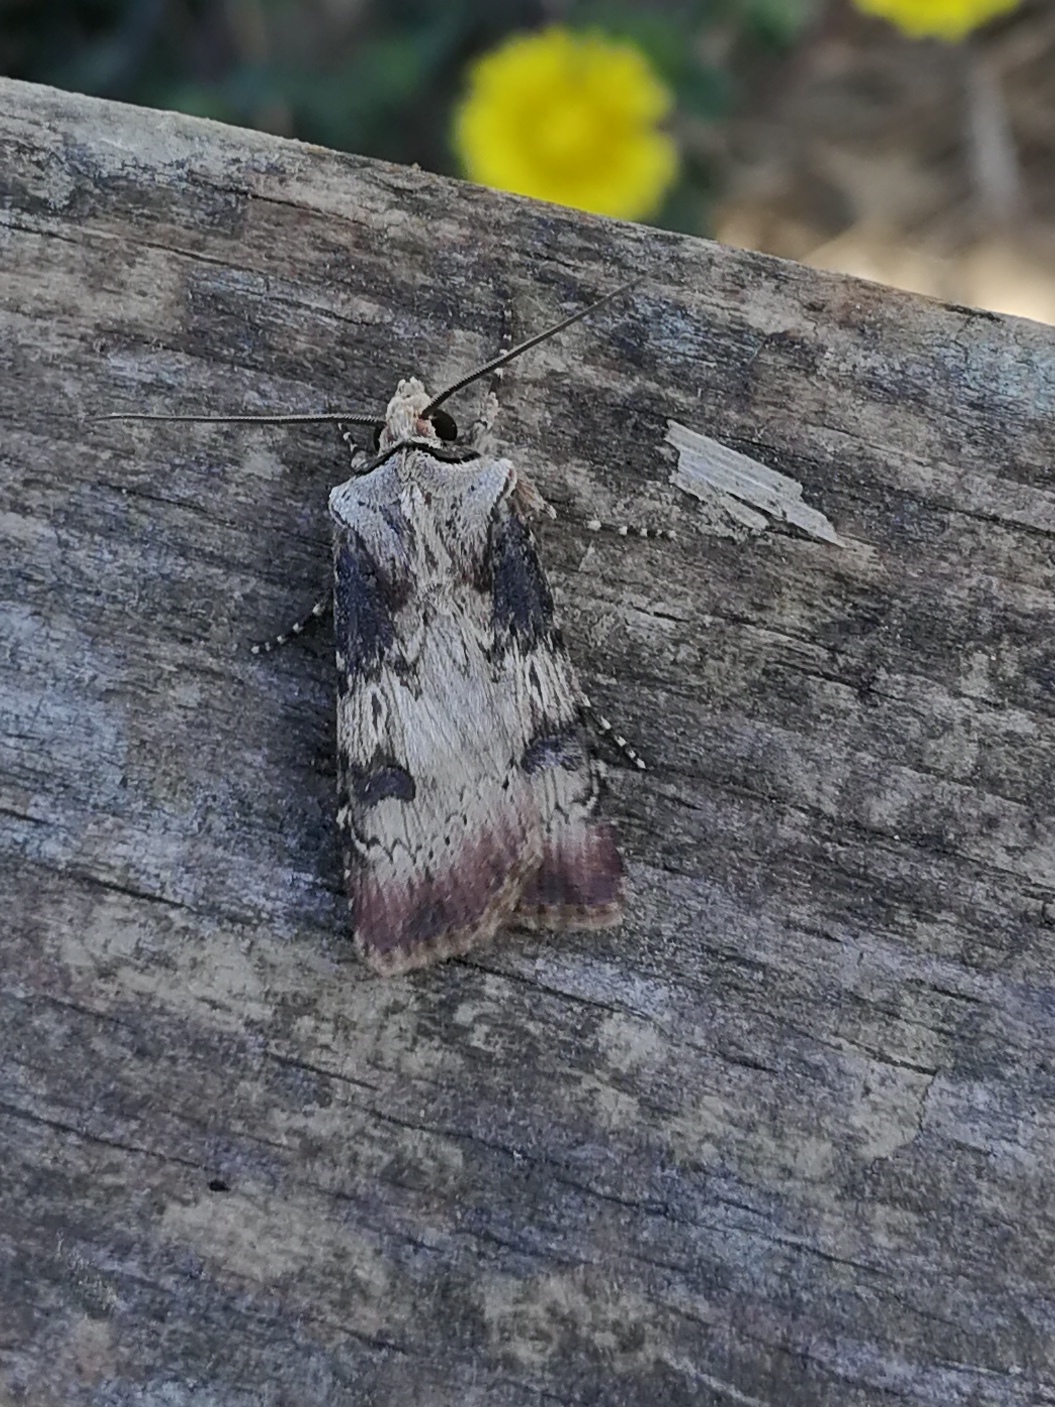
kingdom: Animalia
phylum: Arthropoda
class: Insecta
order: Lepidoptera
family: Noctuidae
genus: Agrotis
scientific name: Agrotis puta
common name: Shuttle-shaped dart
